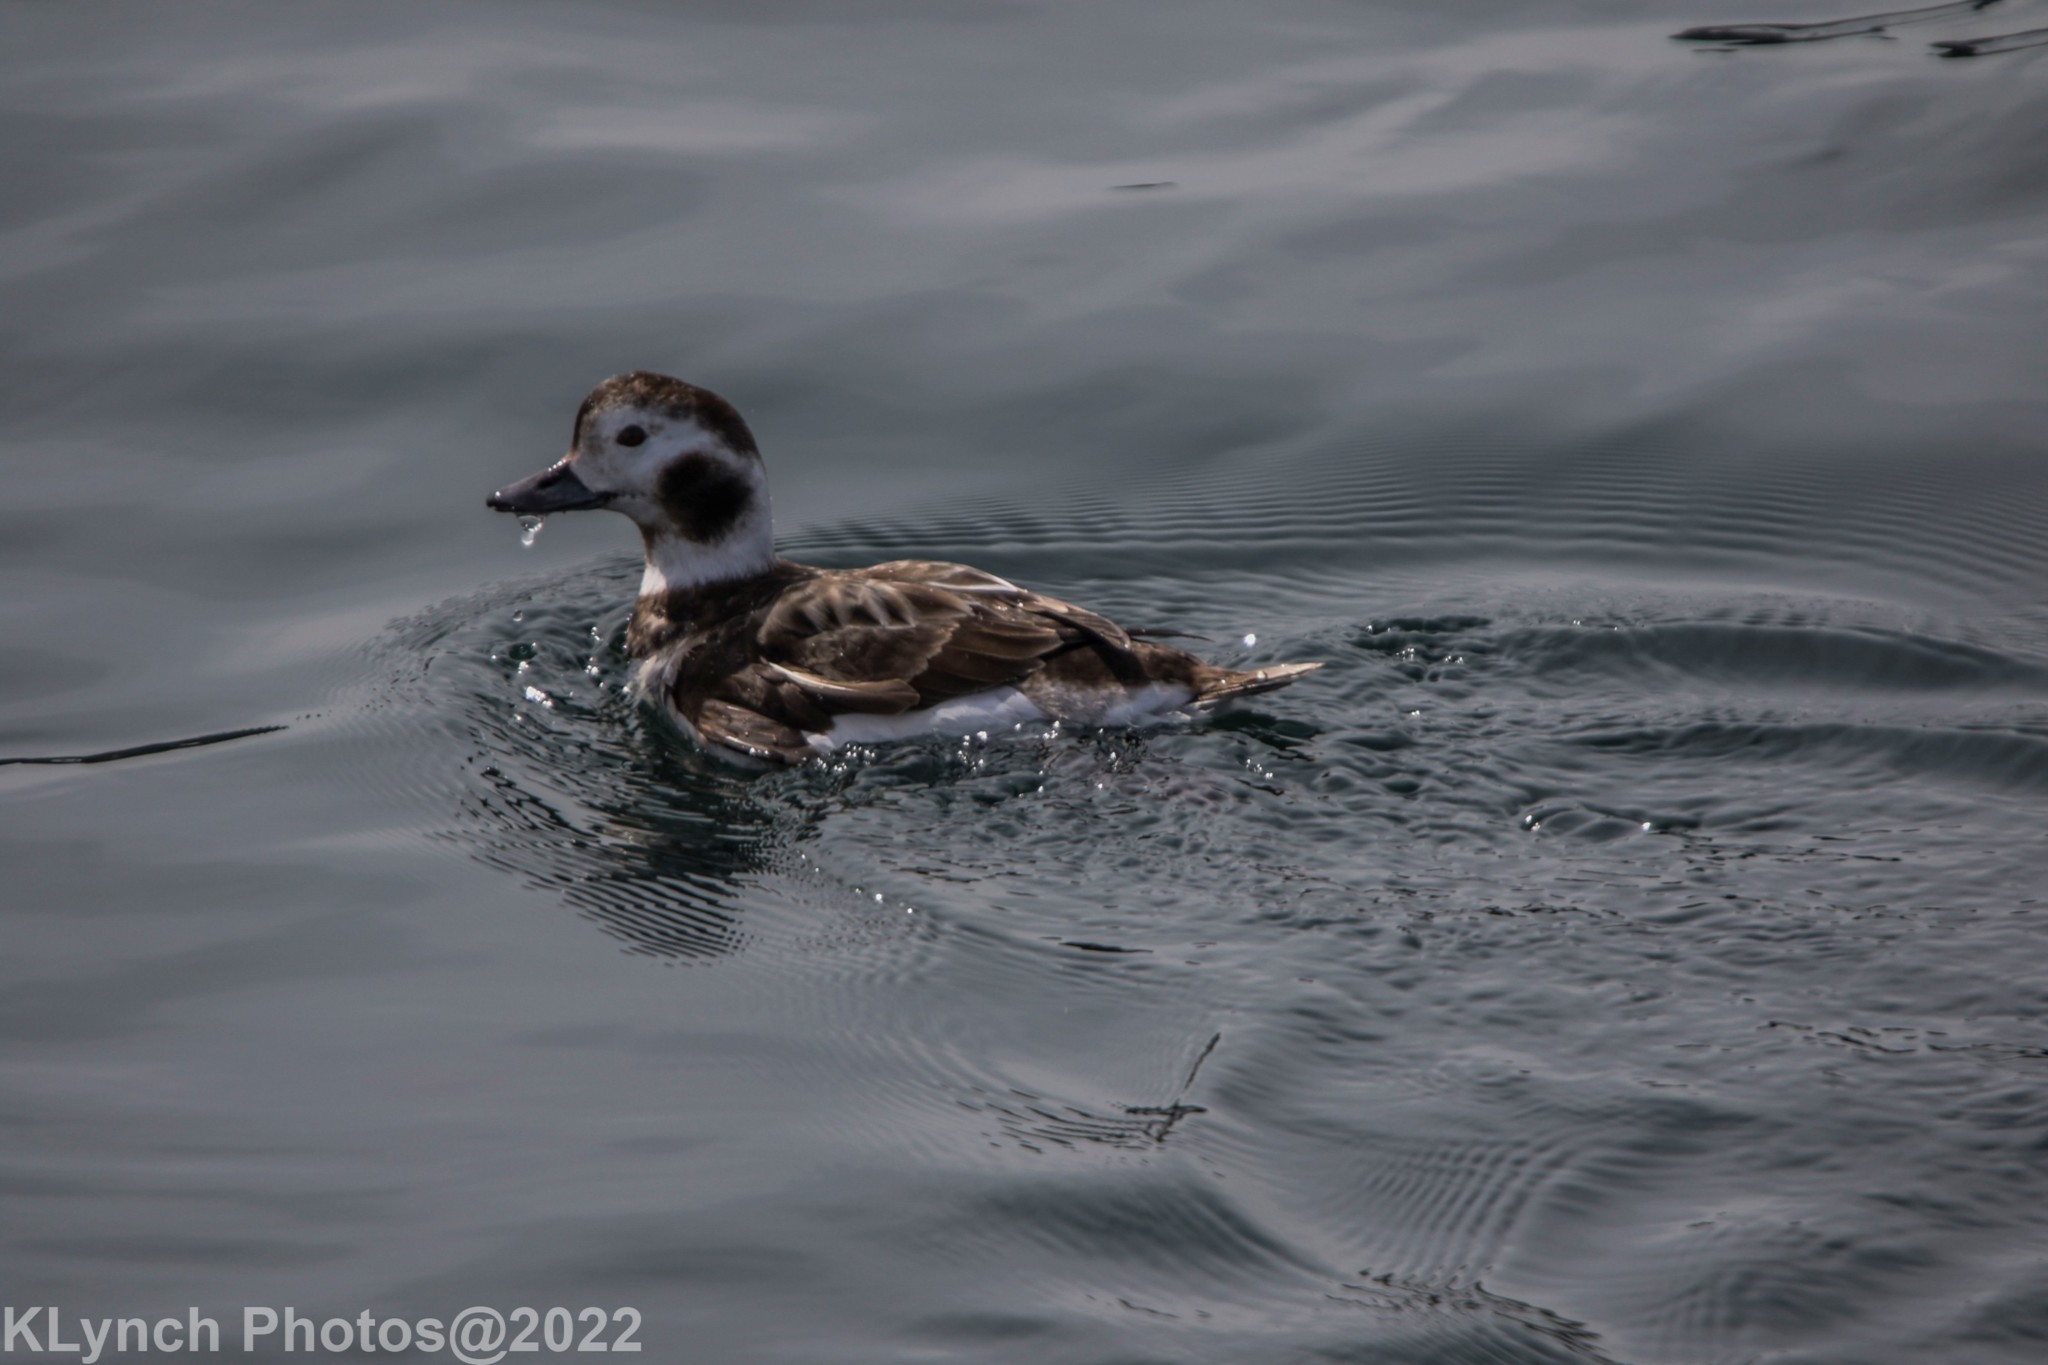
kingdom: Animalia
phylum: Chordata
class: Aves
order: Anseriformes
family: Anatidae
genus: Clangula
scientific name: Clangula hyemalis
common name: Long-tailed duck
